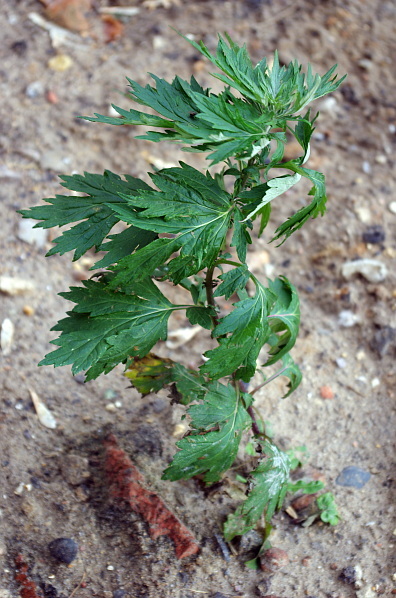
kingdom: Plantae
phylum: Tracheophyta
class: Magnoliopsida
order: Asterales
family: Asteraceae
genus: Artemisia
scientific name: Artemisia vulgaris
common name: Mugwort
